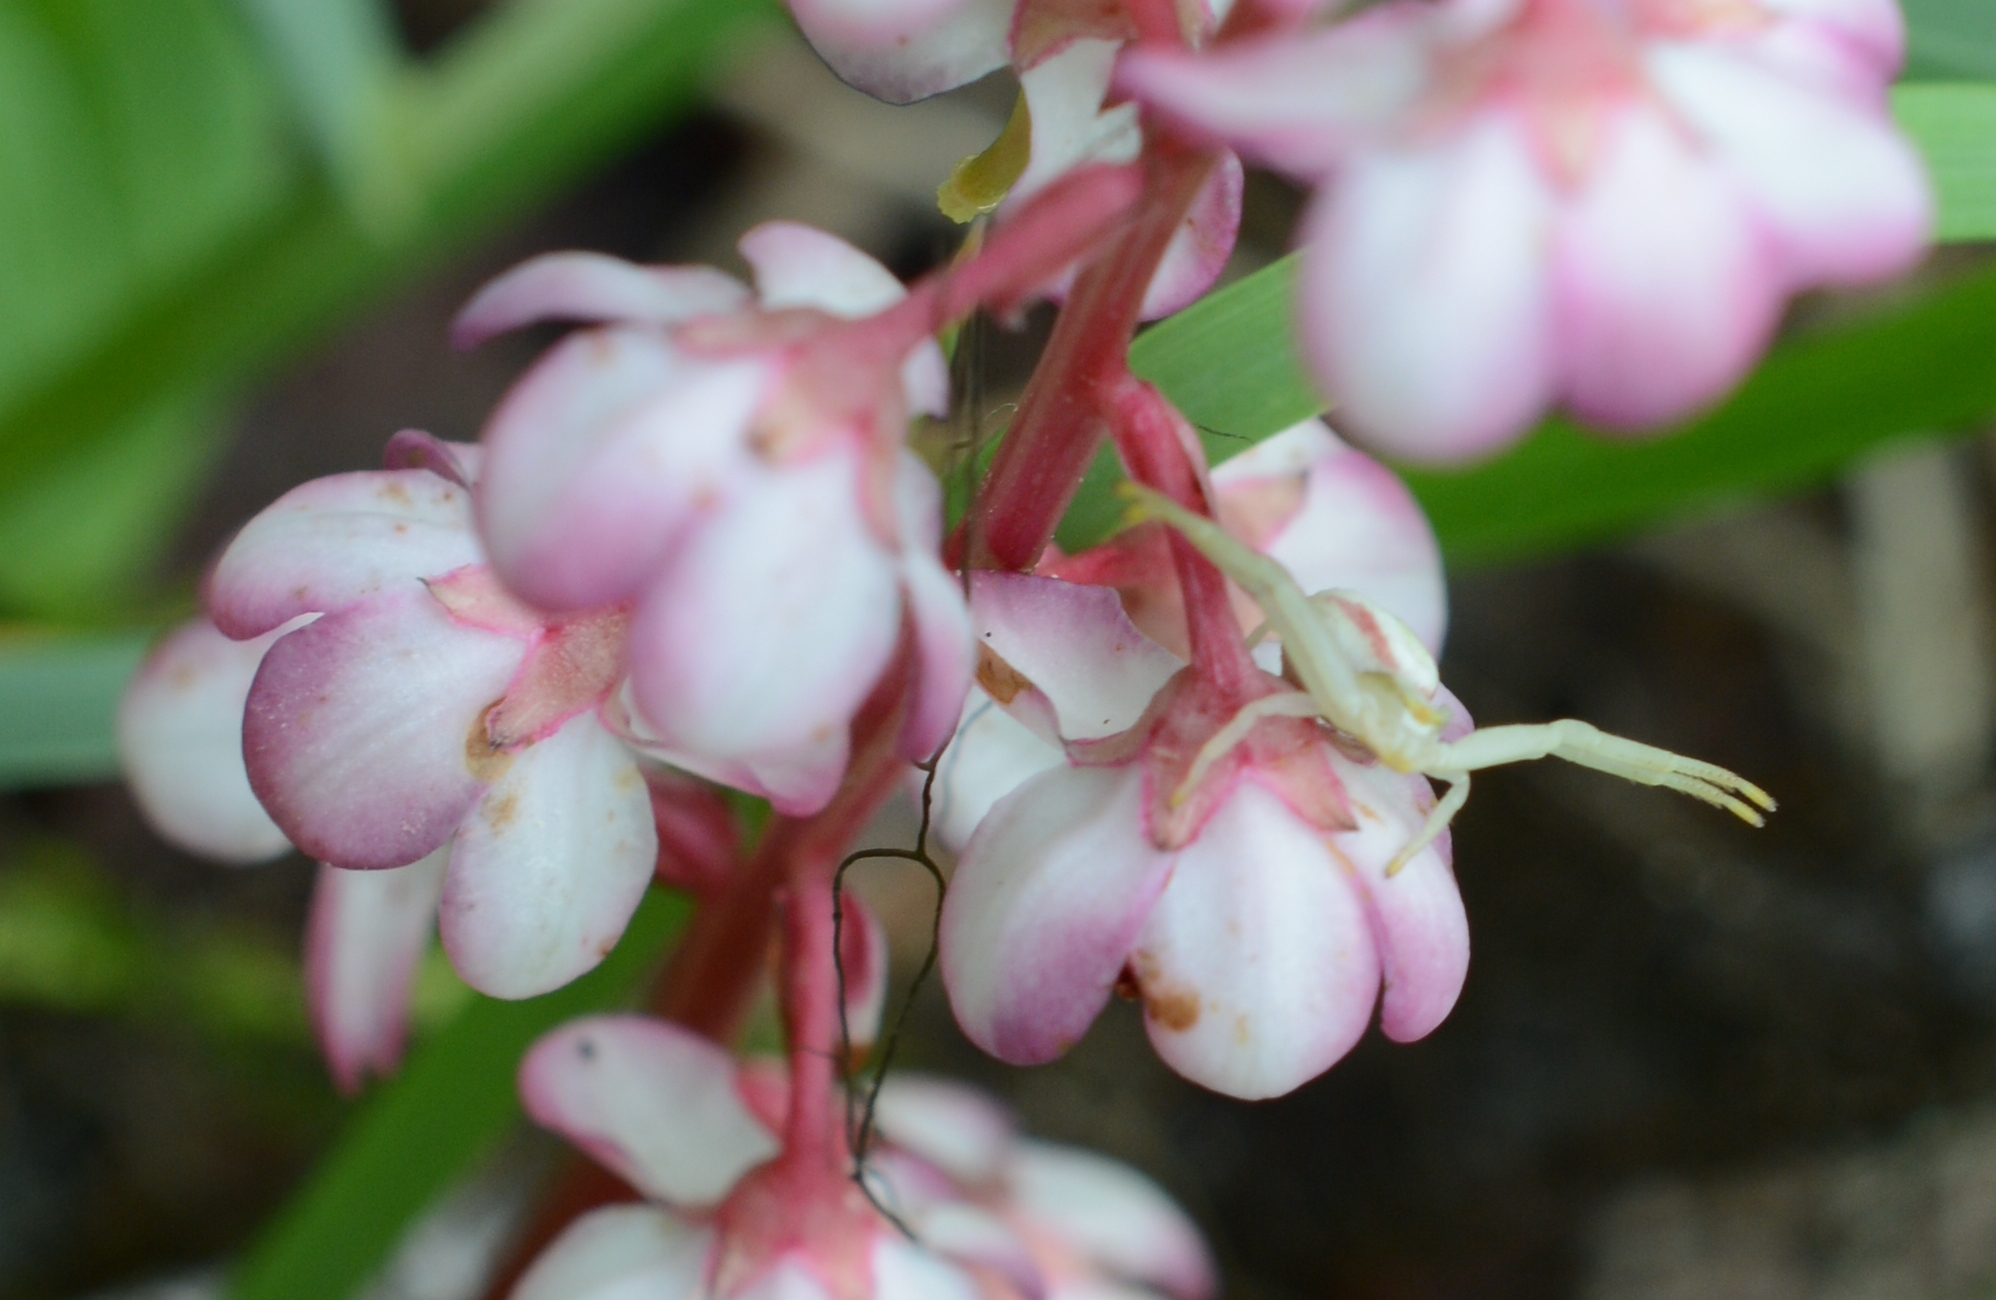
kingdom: Animalia
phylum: Arthropoda
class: Arachnida
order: Araneae
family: Thomisidae
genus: Misumena
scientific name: Misumena vatia
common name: Goldenrod crab spider
